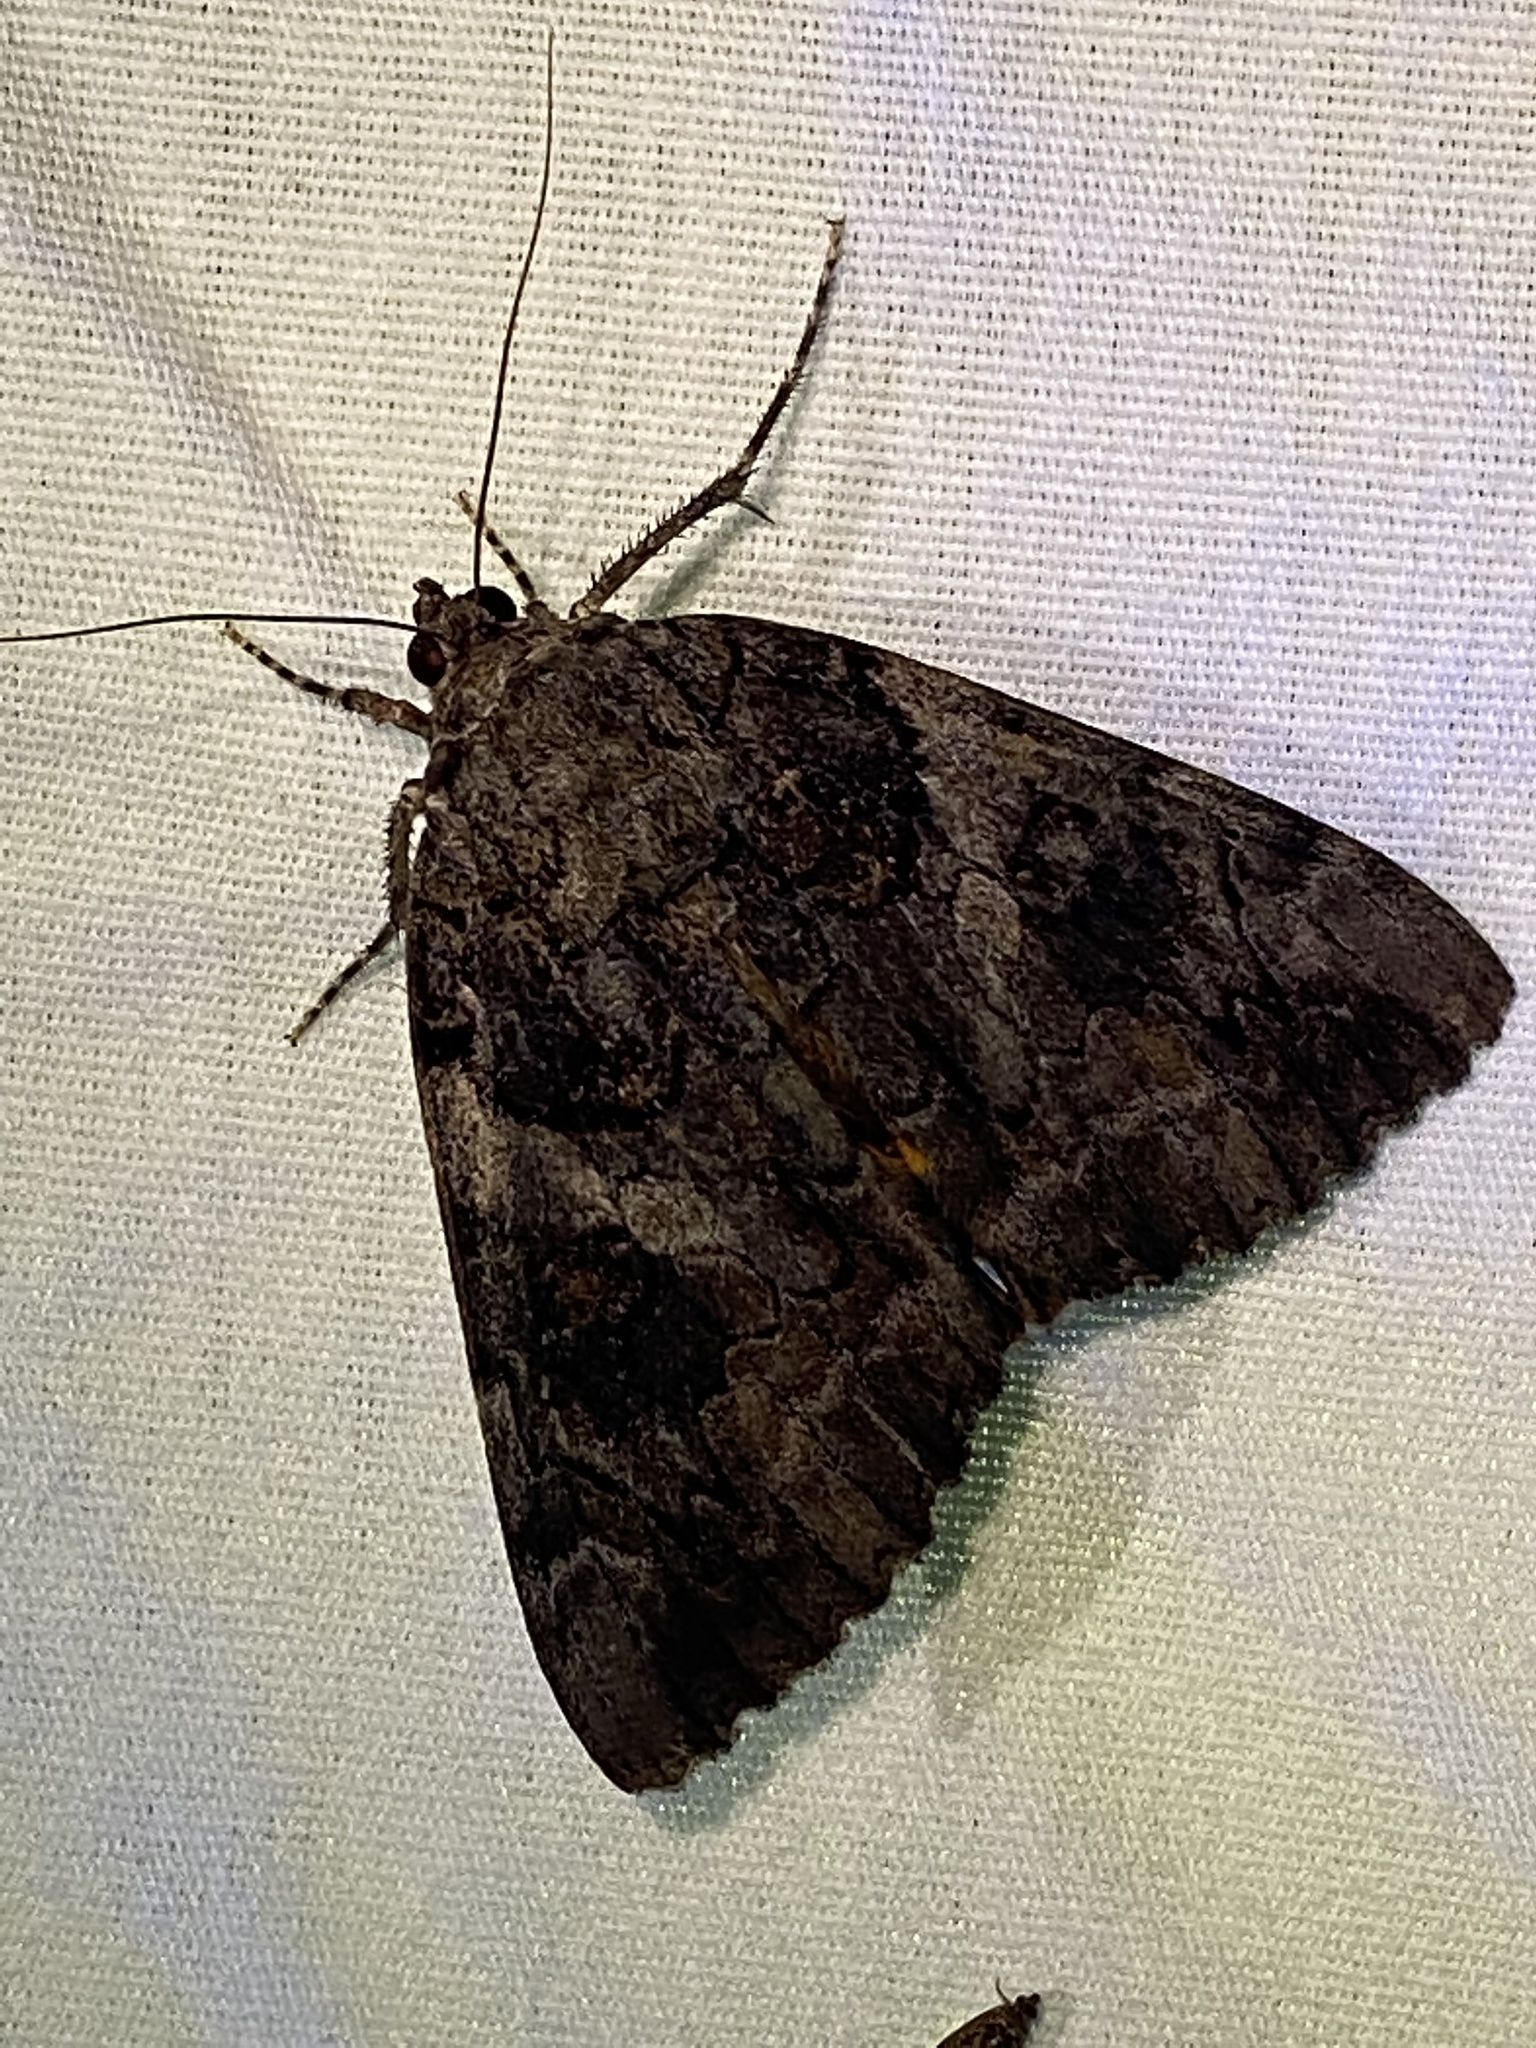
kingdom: Animalia
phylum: Arthropoda
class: Insecta
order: Lepidoptera
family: Erebidae
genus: Catocala
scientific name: Catocala piatrix
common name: The penitent underwing
